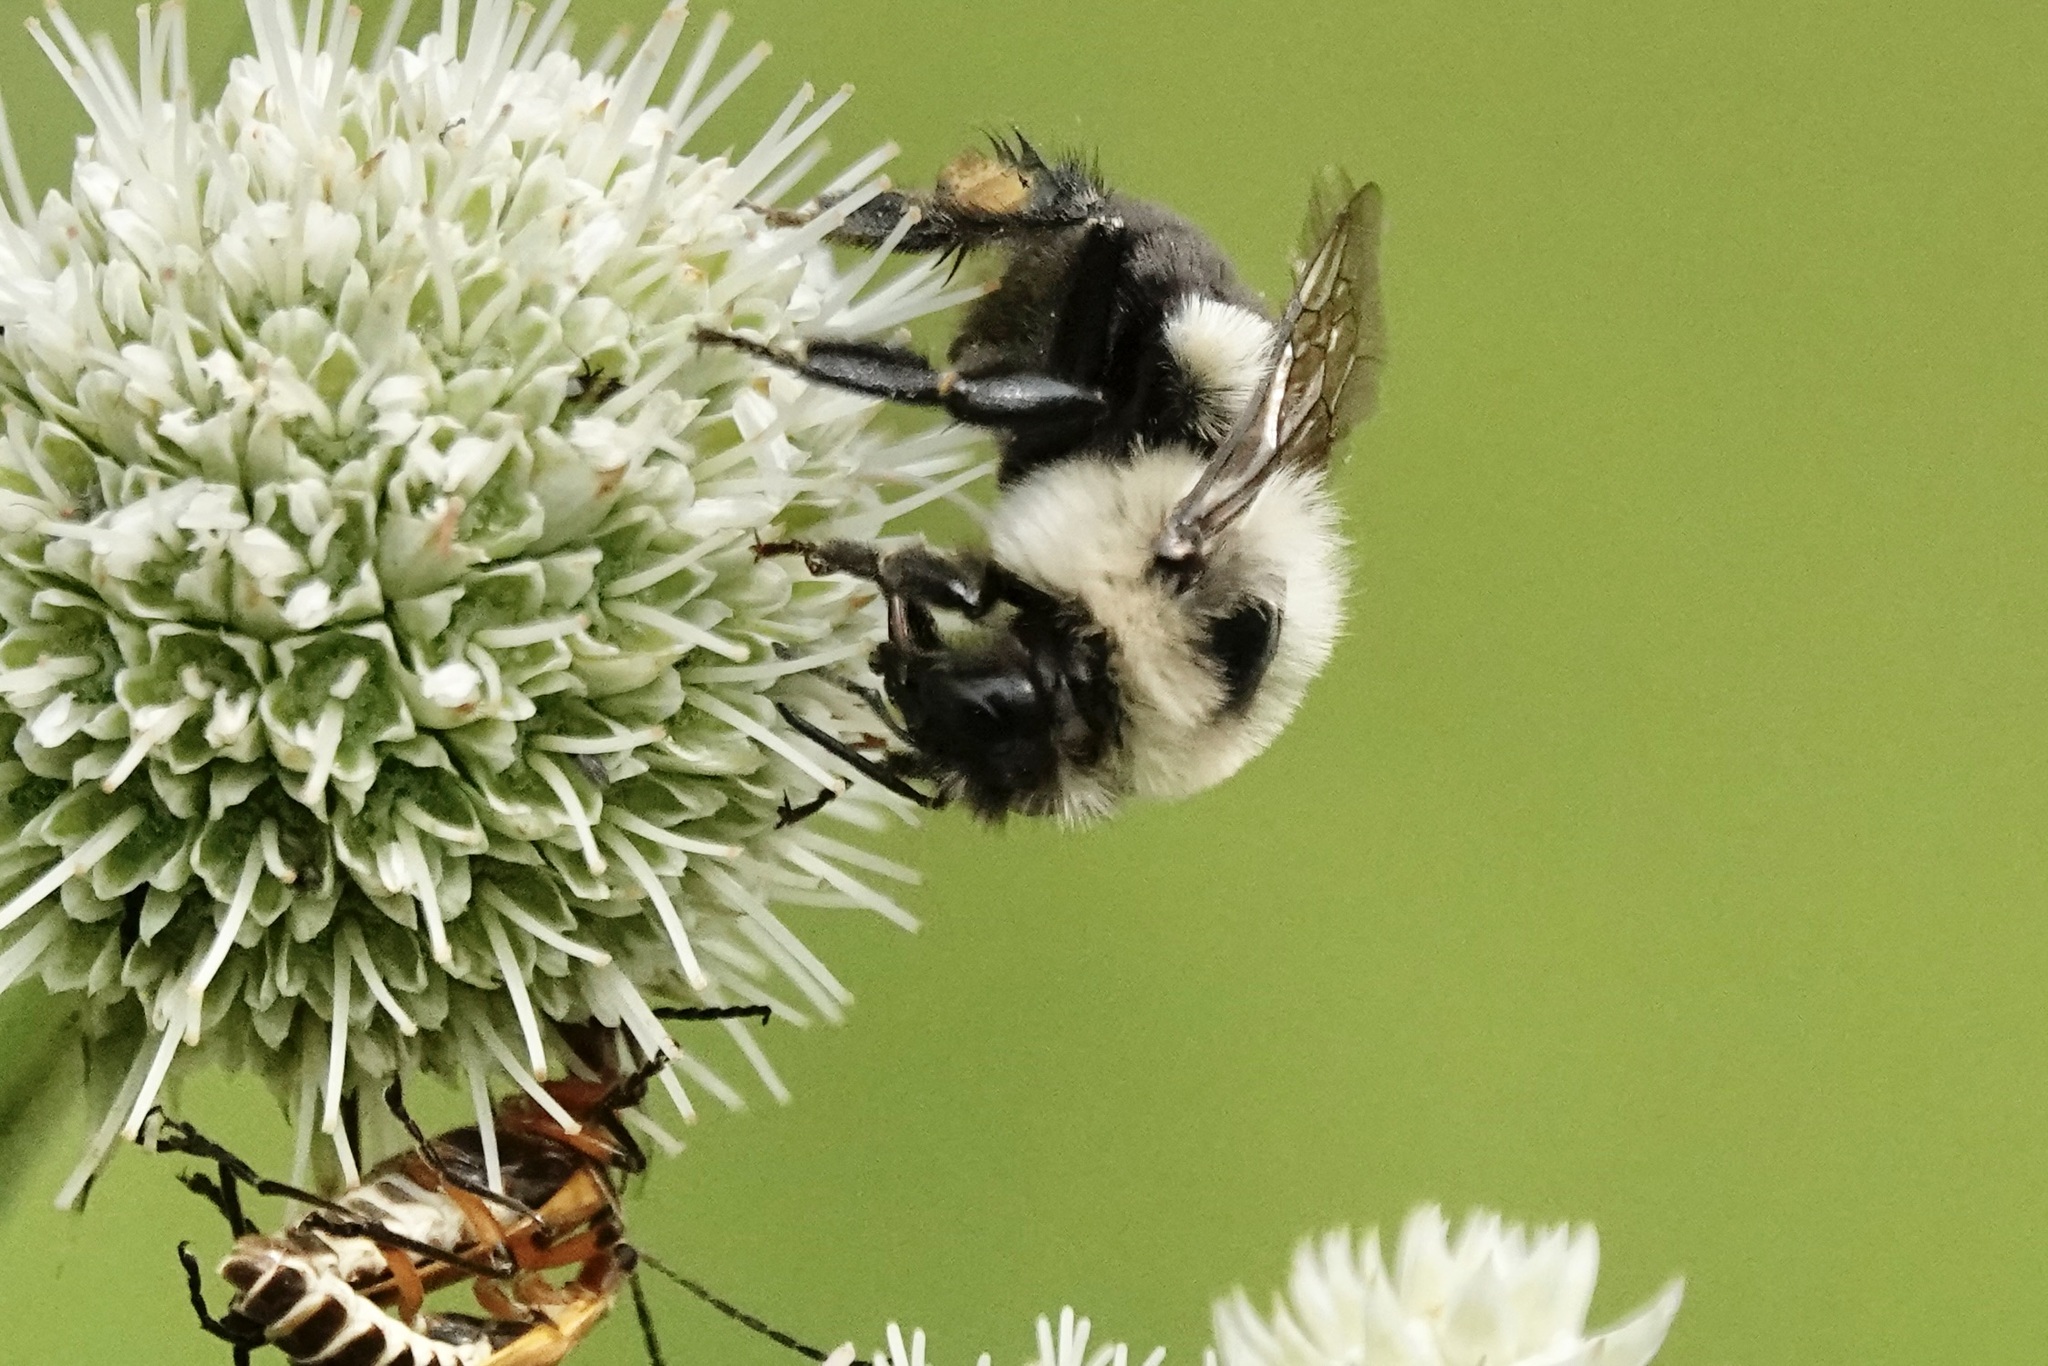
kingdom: Animalia
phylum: Arthropoda
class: Insecta
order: Hymenoptera
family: Apidae
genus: Bombus
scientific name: Bombus impatiens
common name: Common eastern bumble bee
